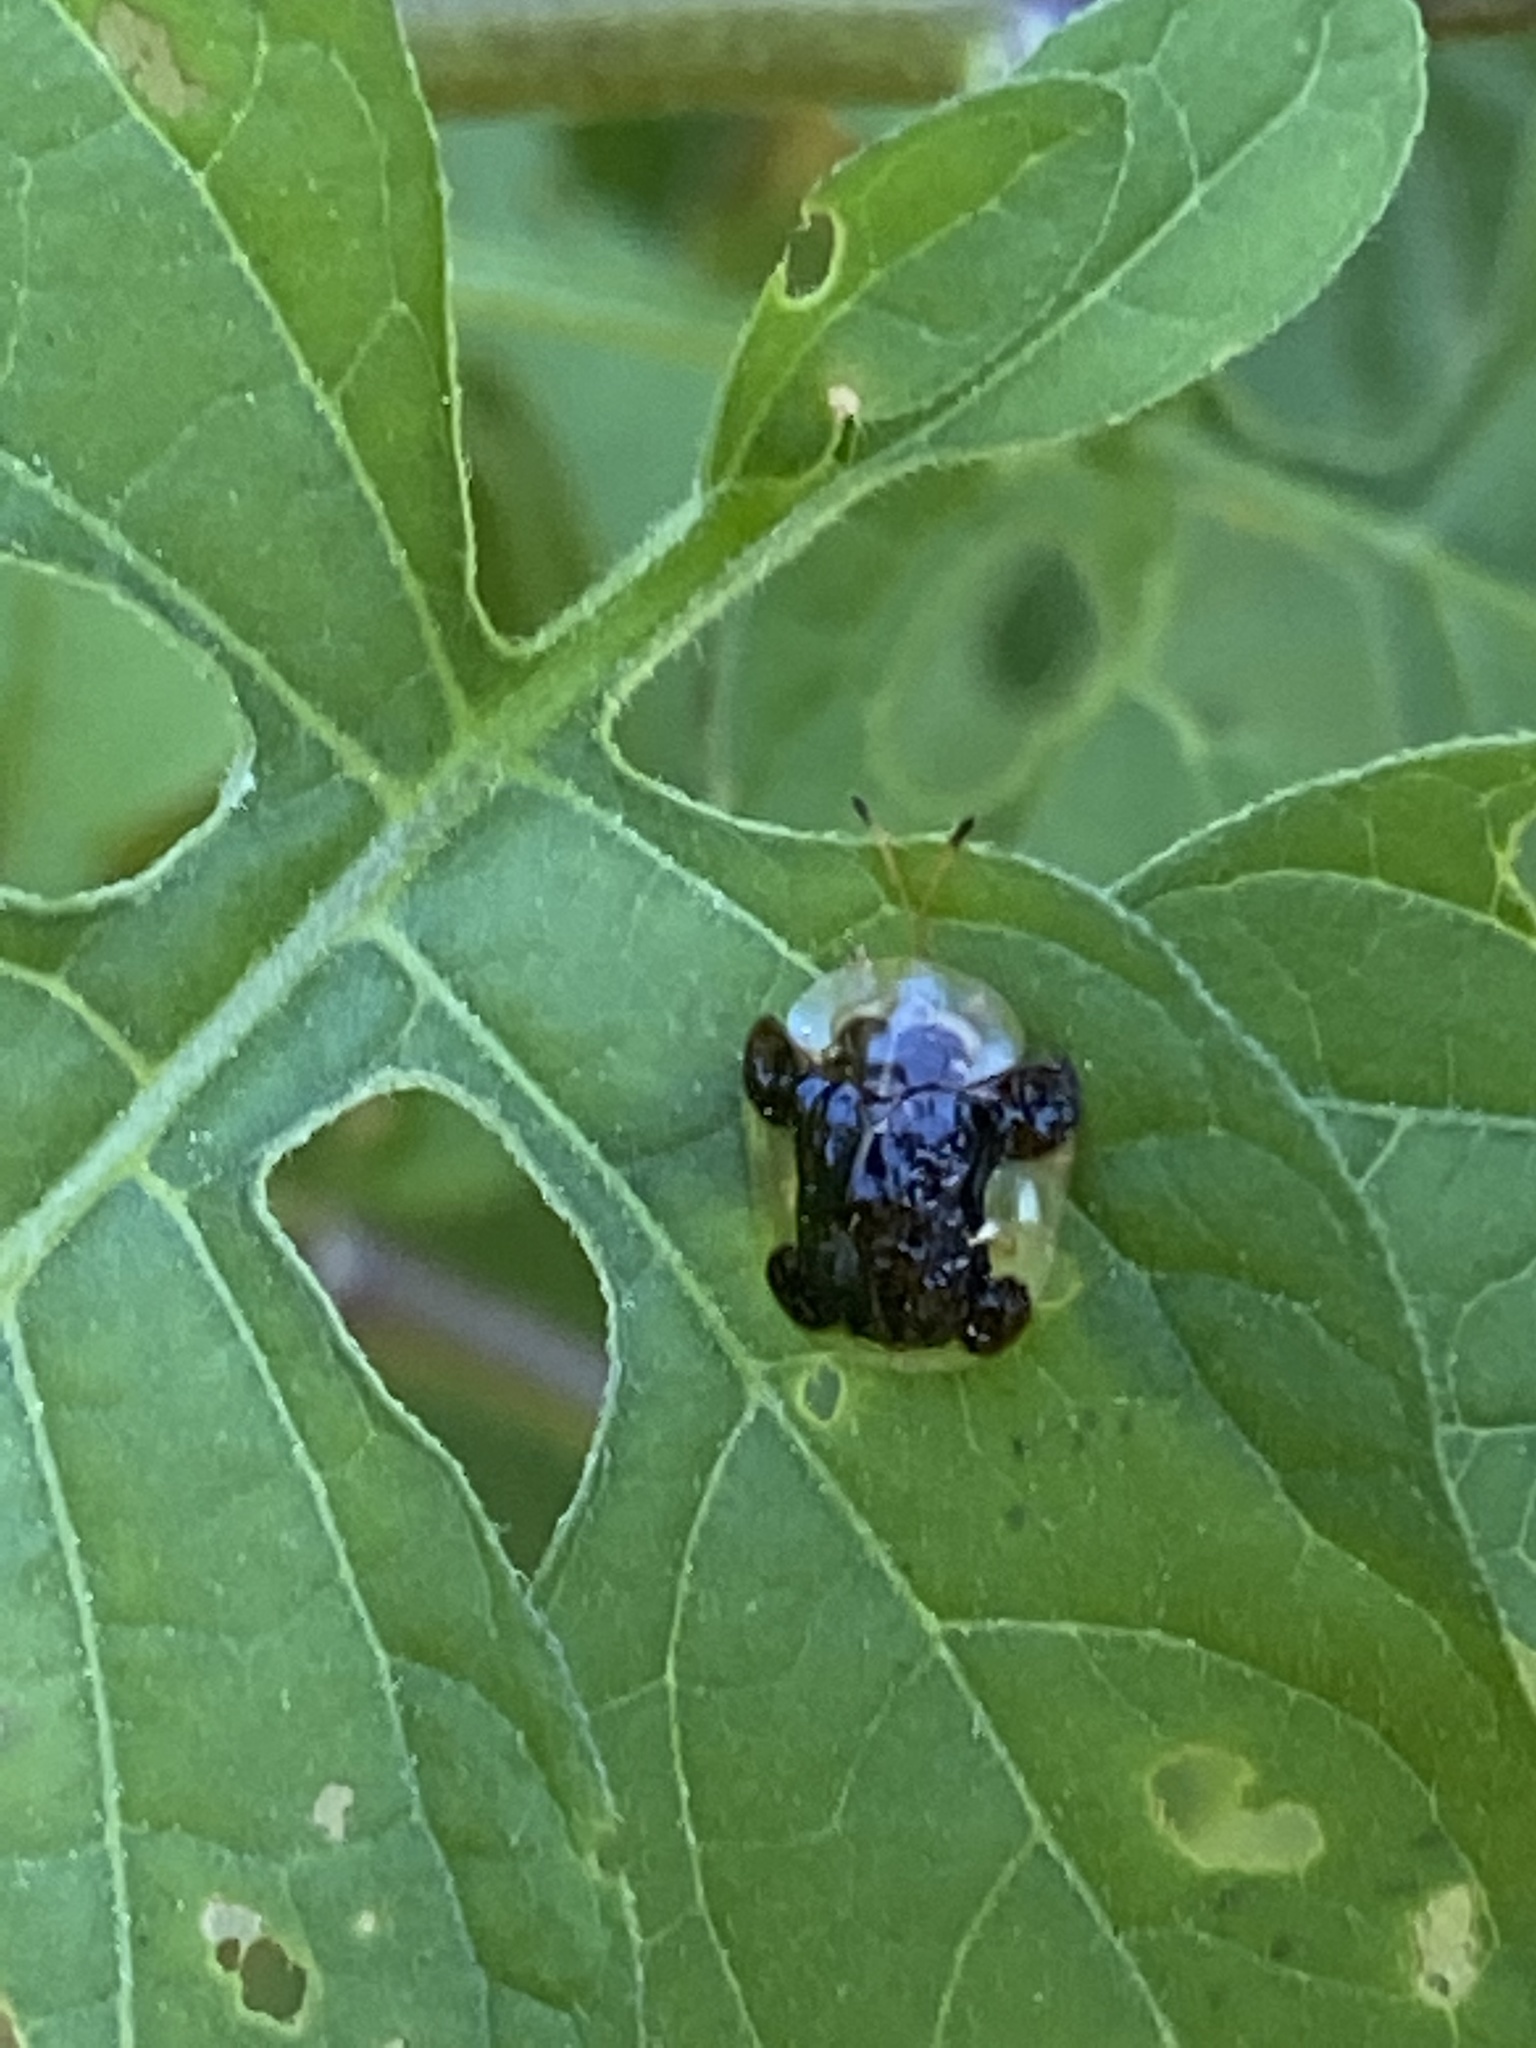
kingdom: Animalia
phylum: Arthropoda
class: Insecta
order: Coleoptera
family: Chrysomelidae
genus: Helocassis
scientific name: Helocassis clavata
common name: Clavate tortoise beetle
